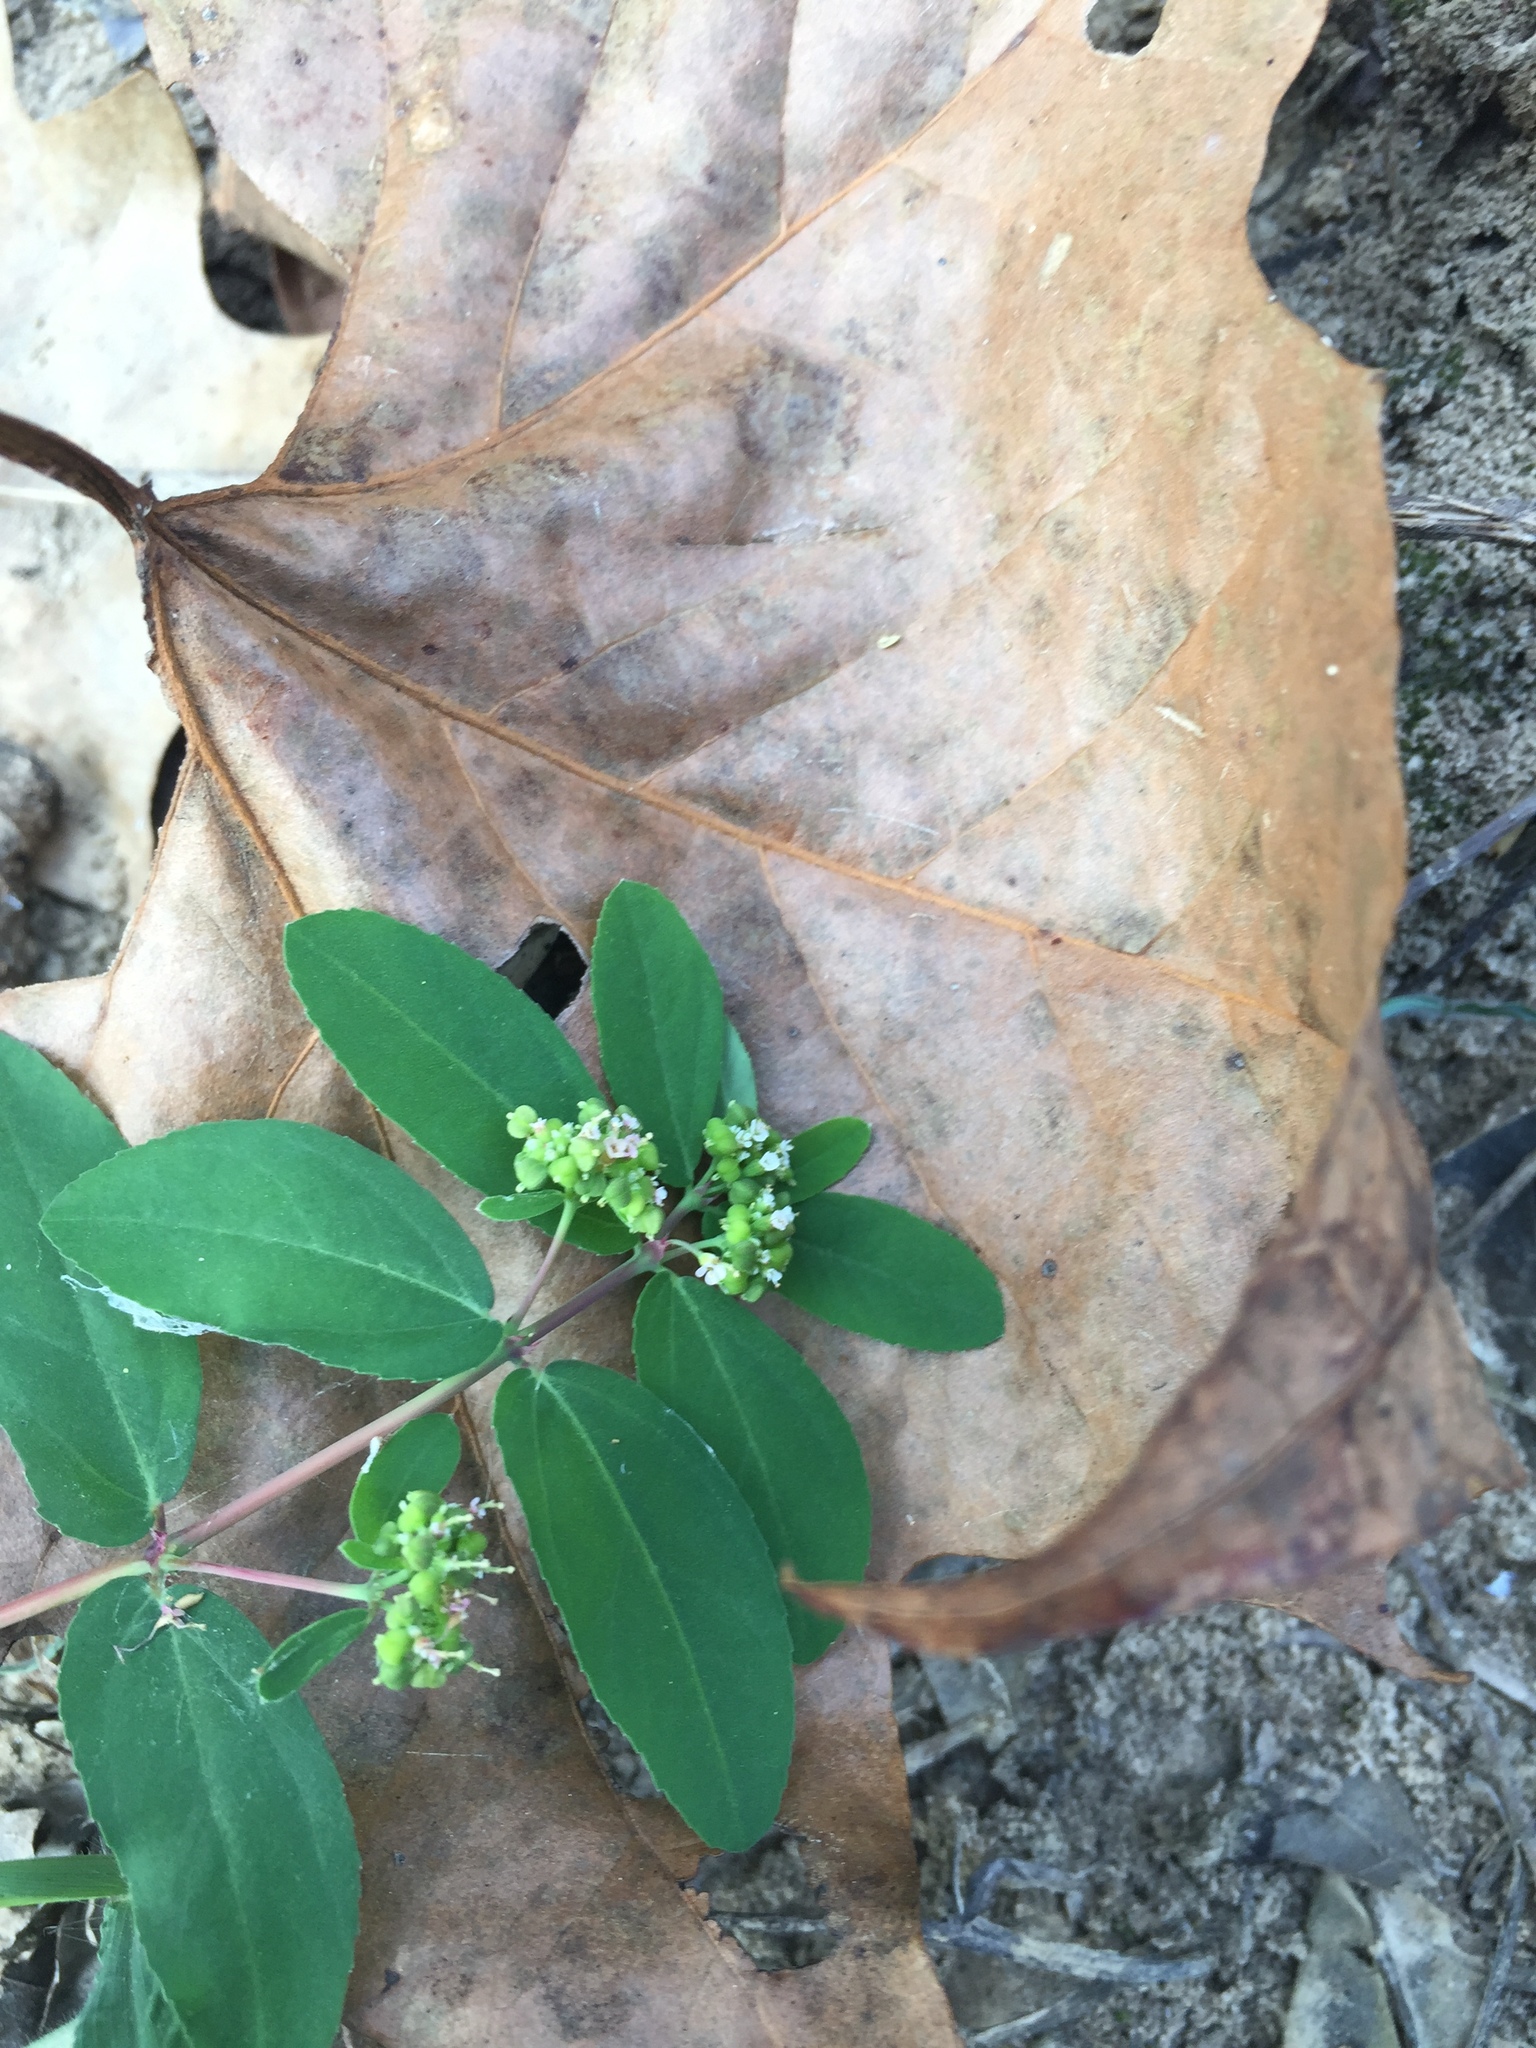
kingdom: Plantae
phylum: Tracheophyta
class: Magnoliopsida
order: Malpighiales
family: Euphorbiaceae
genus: Euphorbia
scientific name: Euphorbia hypericifolia
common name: Graceful sandmat
